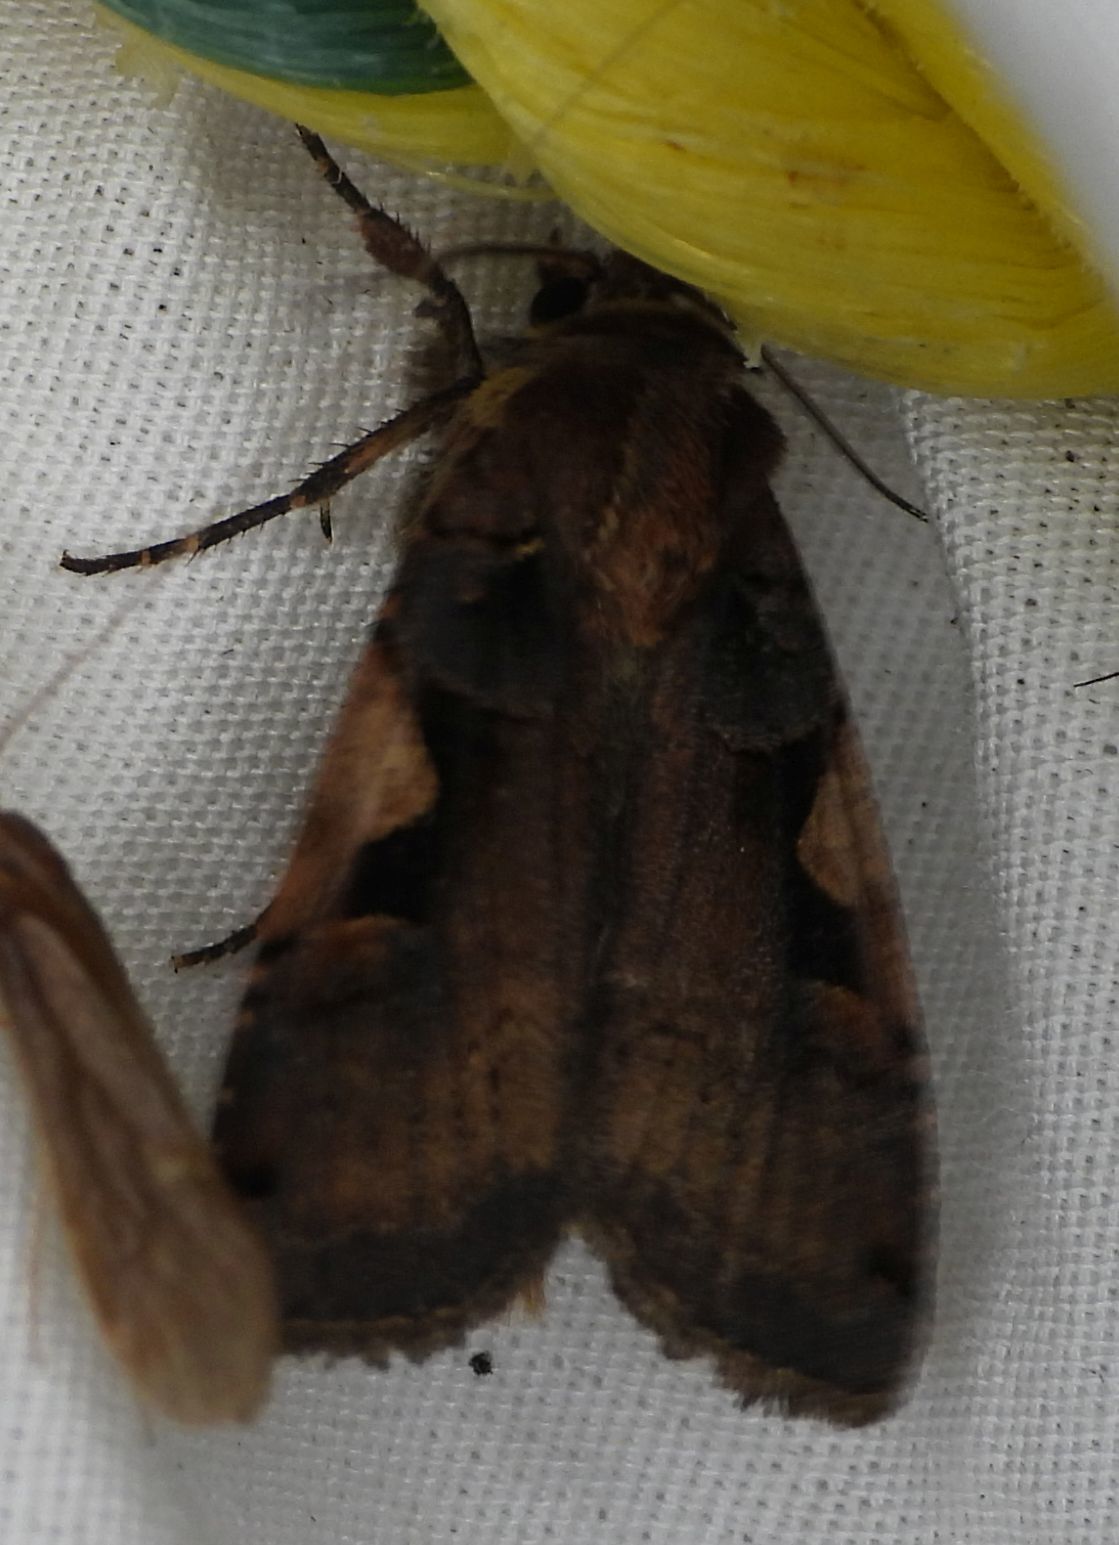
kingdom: Animalia
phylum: Arthropoda
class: Insecta
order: Lepidoptera
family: Noctuidae
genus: Xestia
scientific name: Xestia
